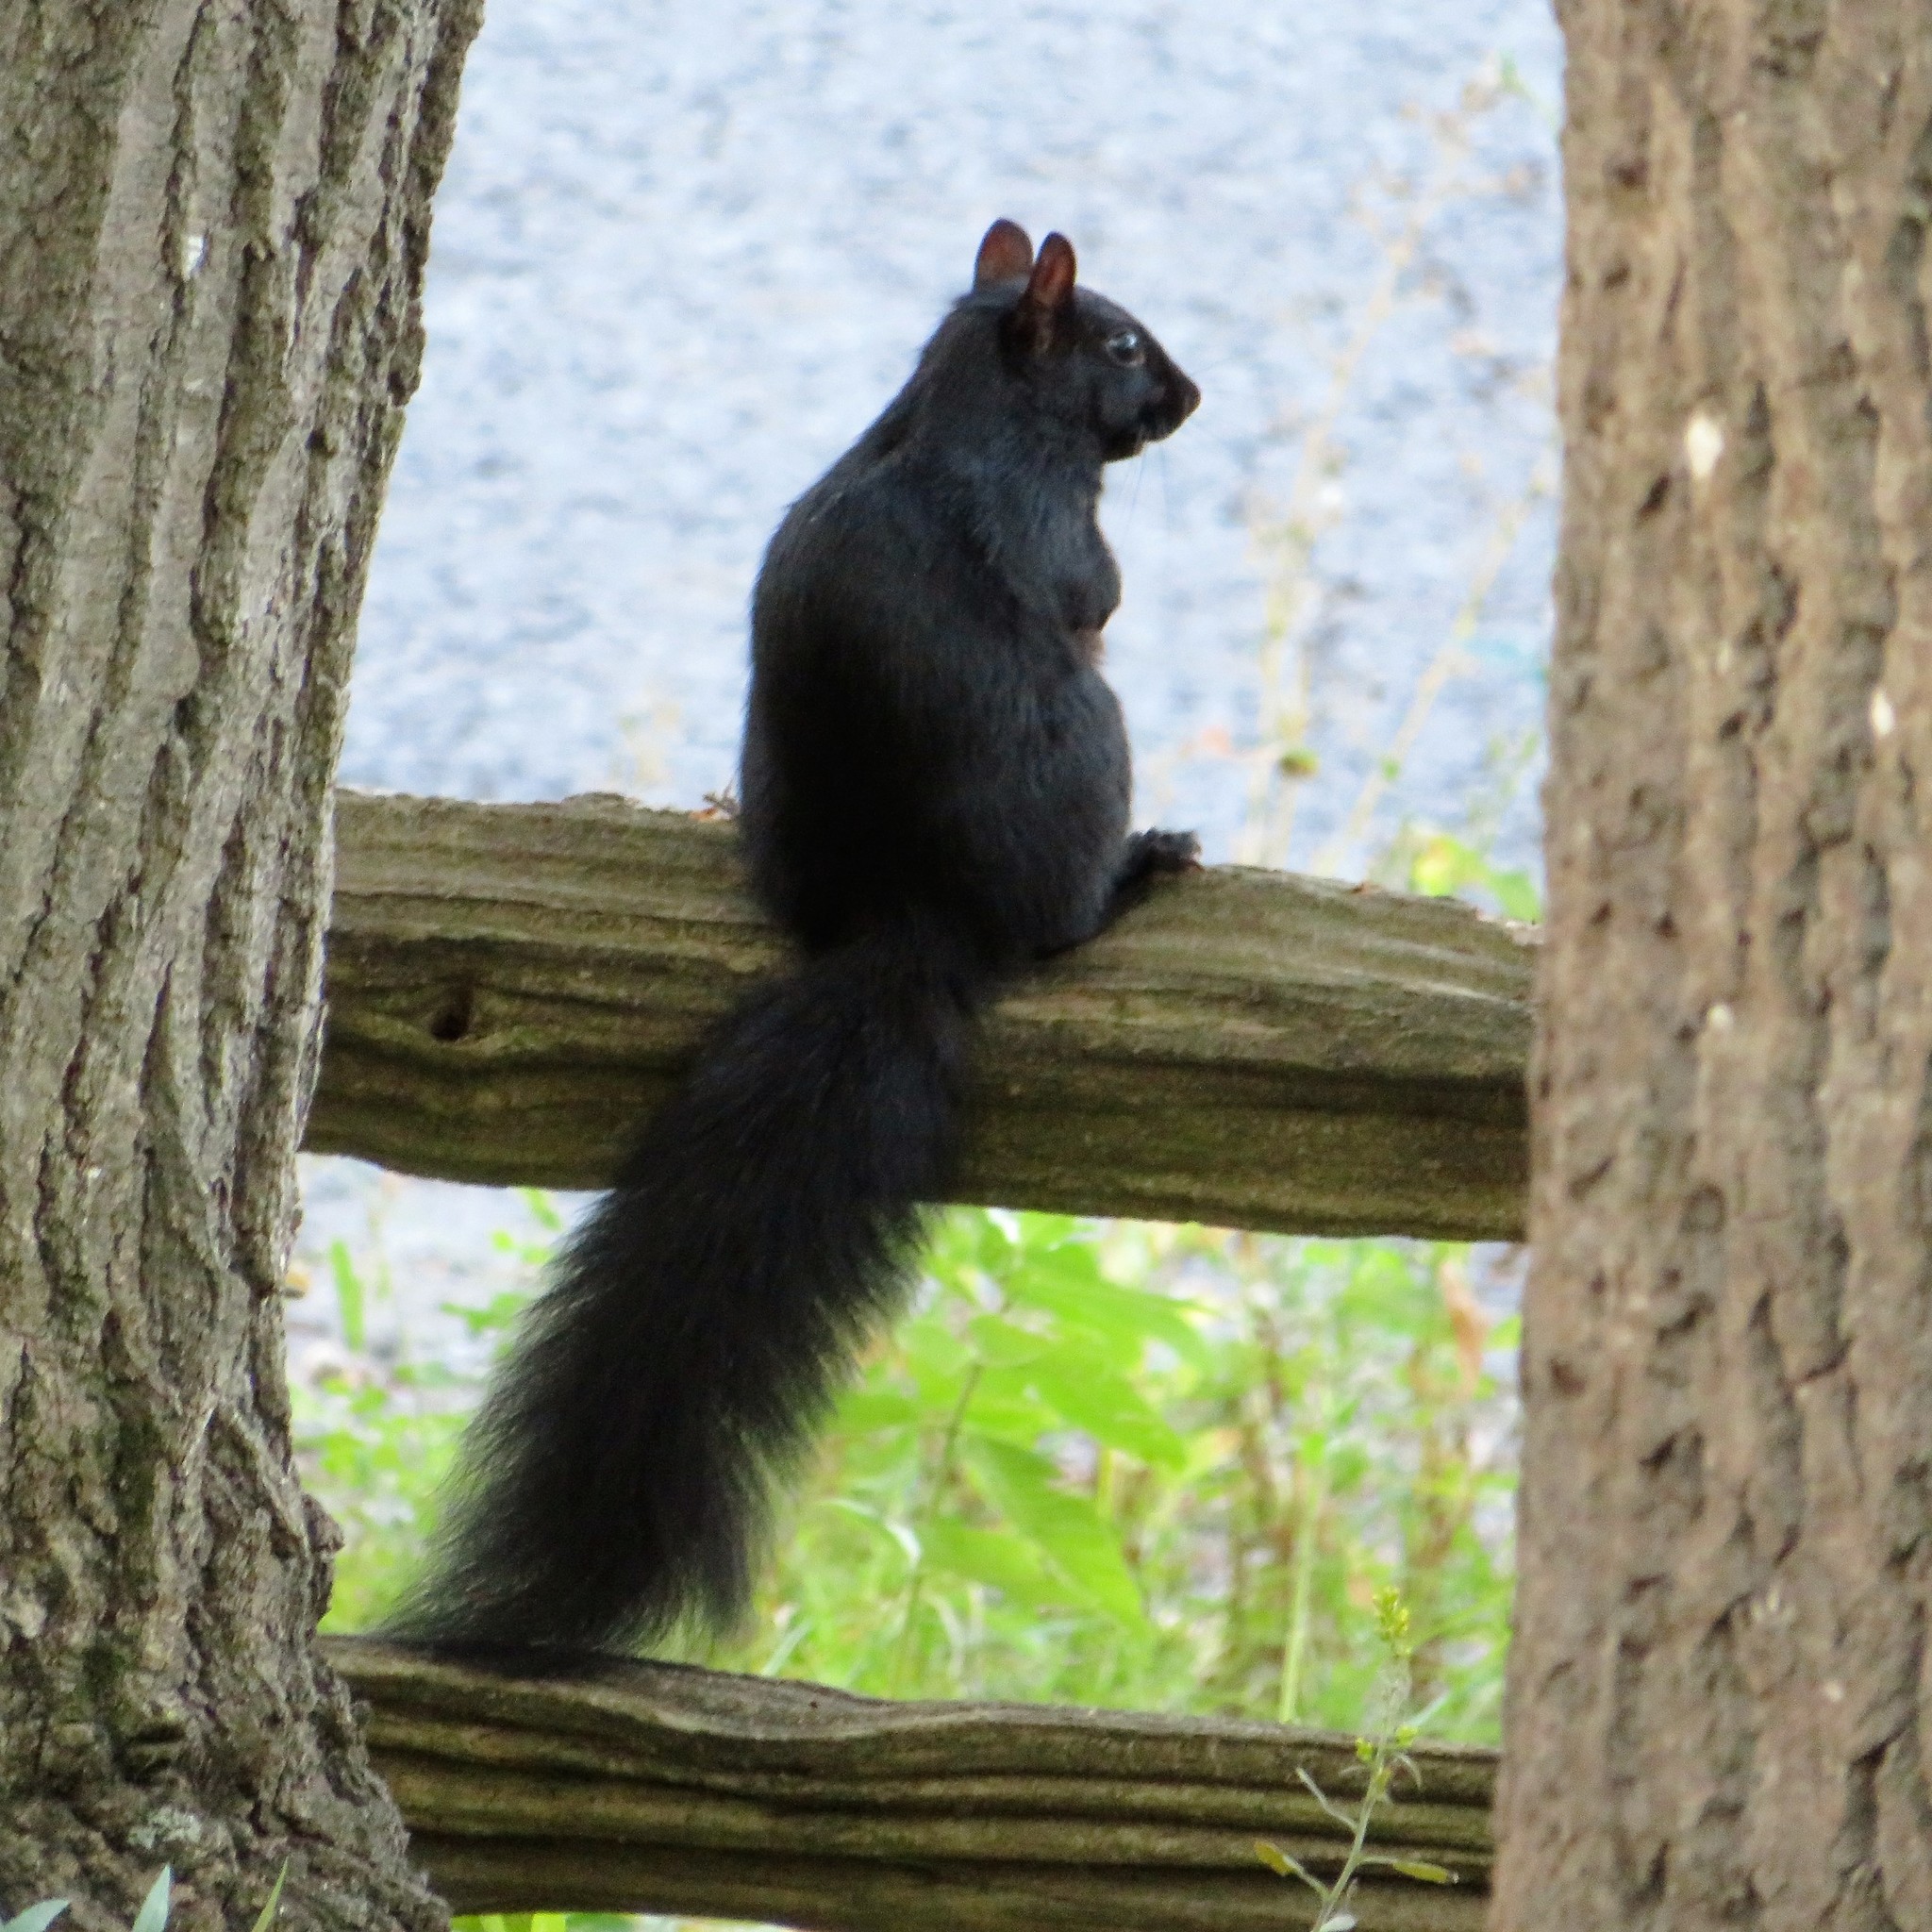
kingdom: Animalia
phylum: Chordata
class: Mammalia
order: Rodentia
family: Sciuridae
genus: Sciurus
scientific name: Sciurus carolinensis
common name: Eastern gray squirrel
